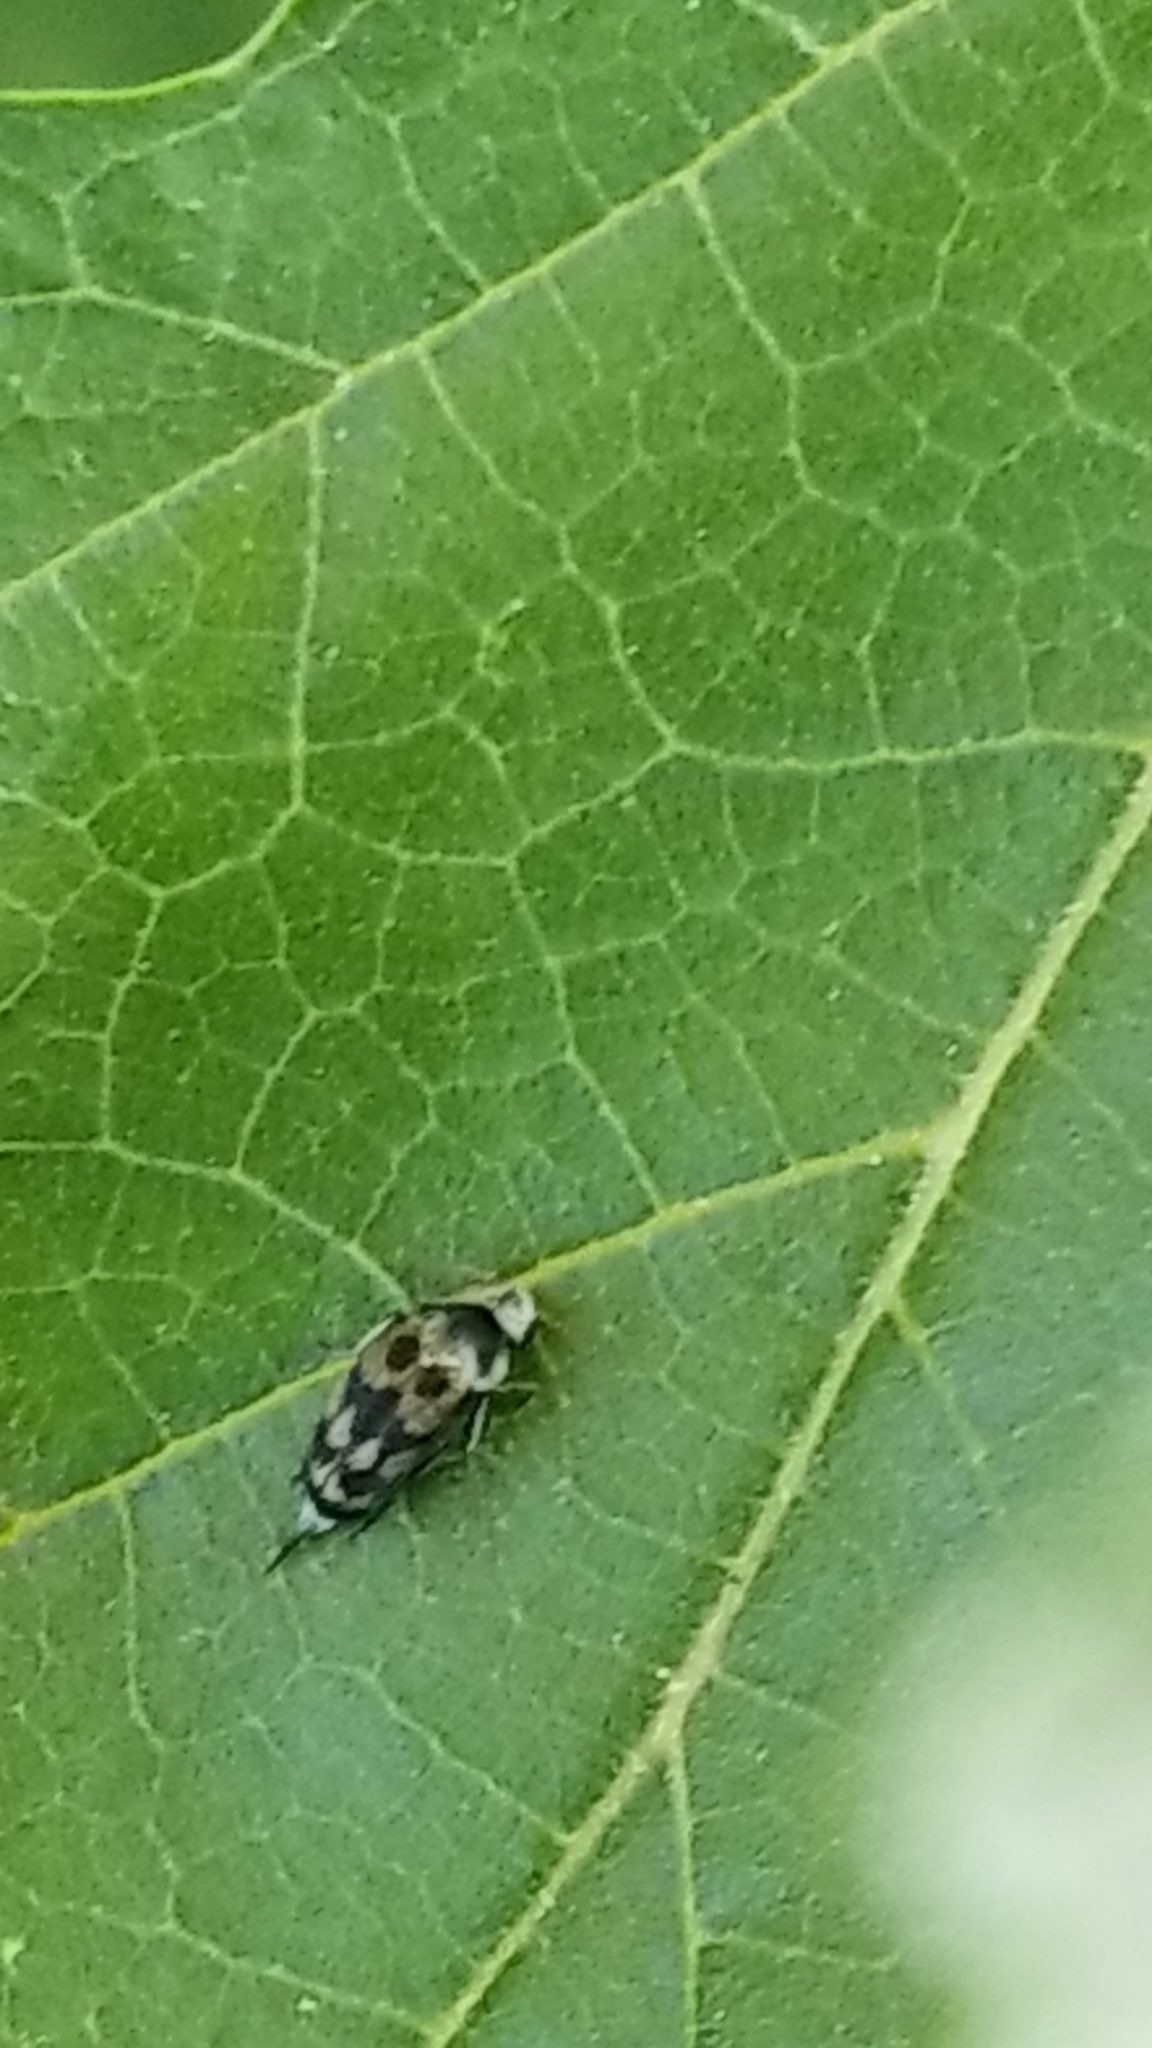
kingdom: Animalia
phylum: Arthropoda
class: Insecta
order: Coleoptera
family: Mordellidae
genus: Paramordellaria
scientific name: Paramordellaria triloba
